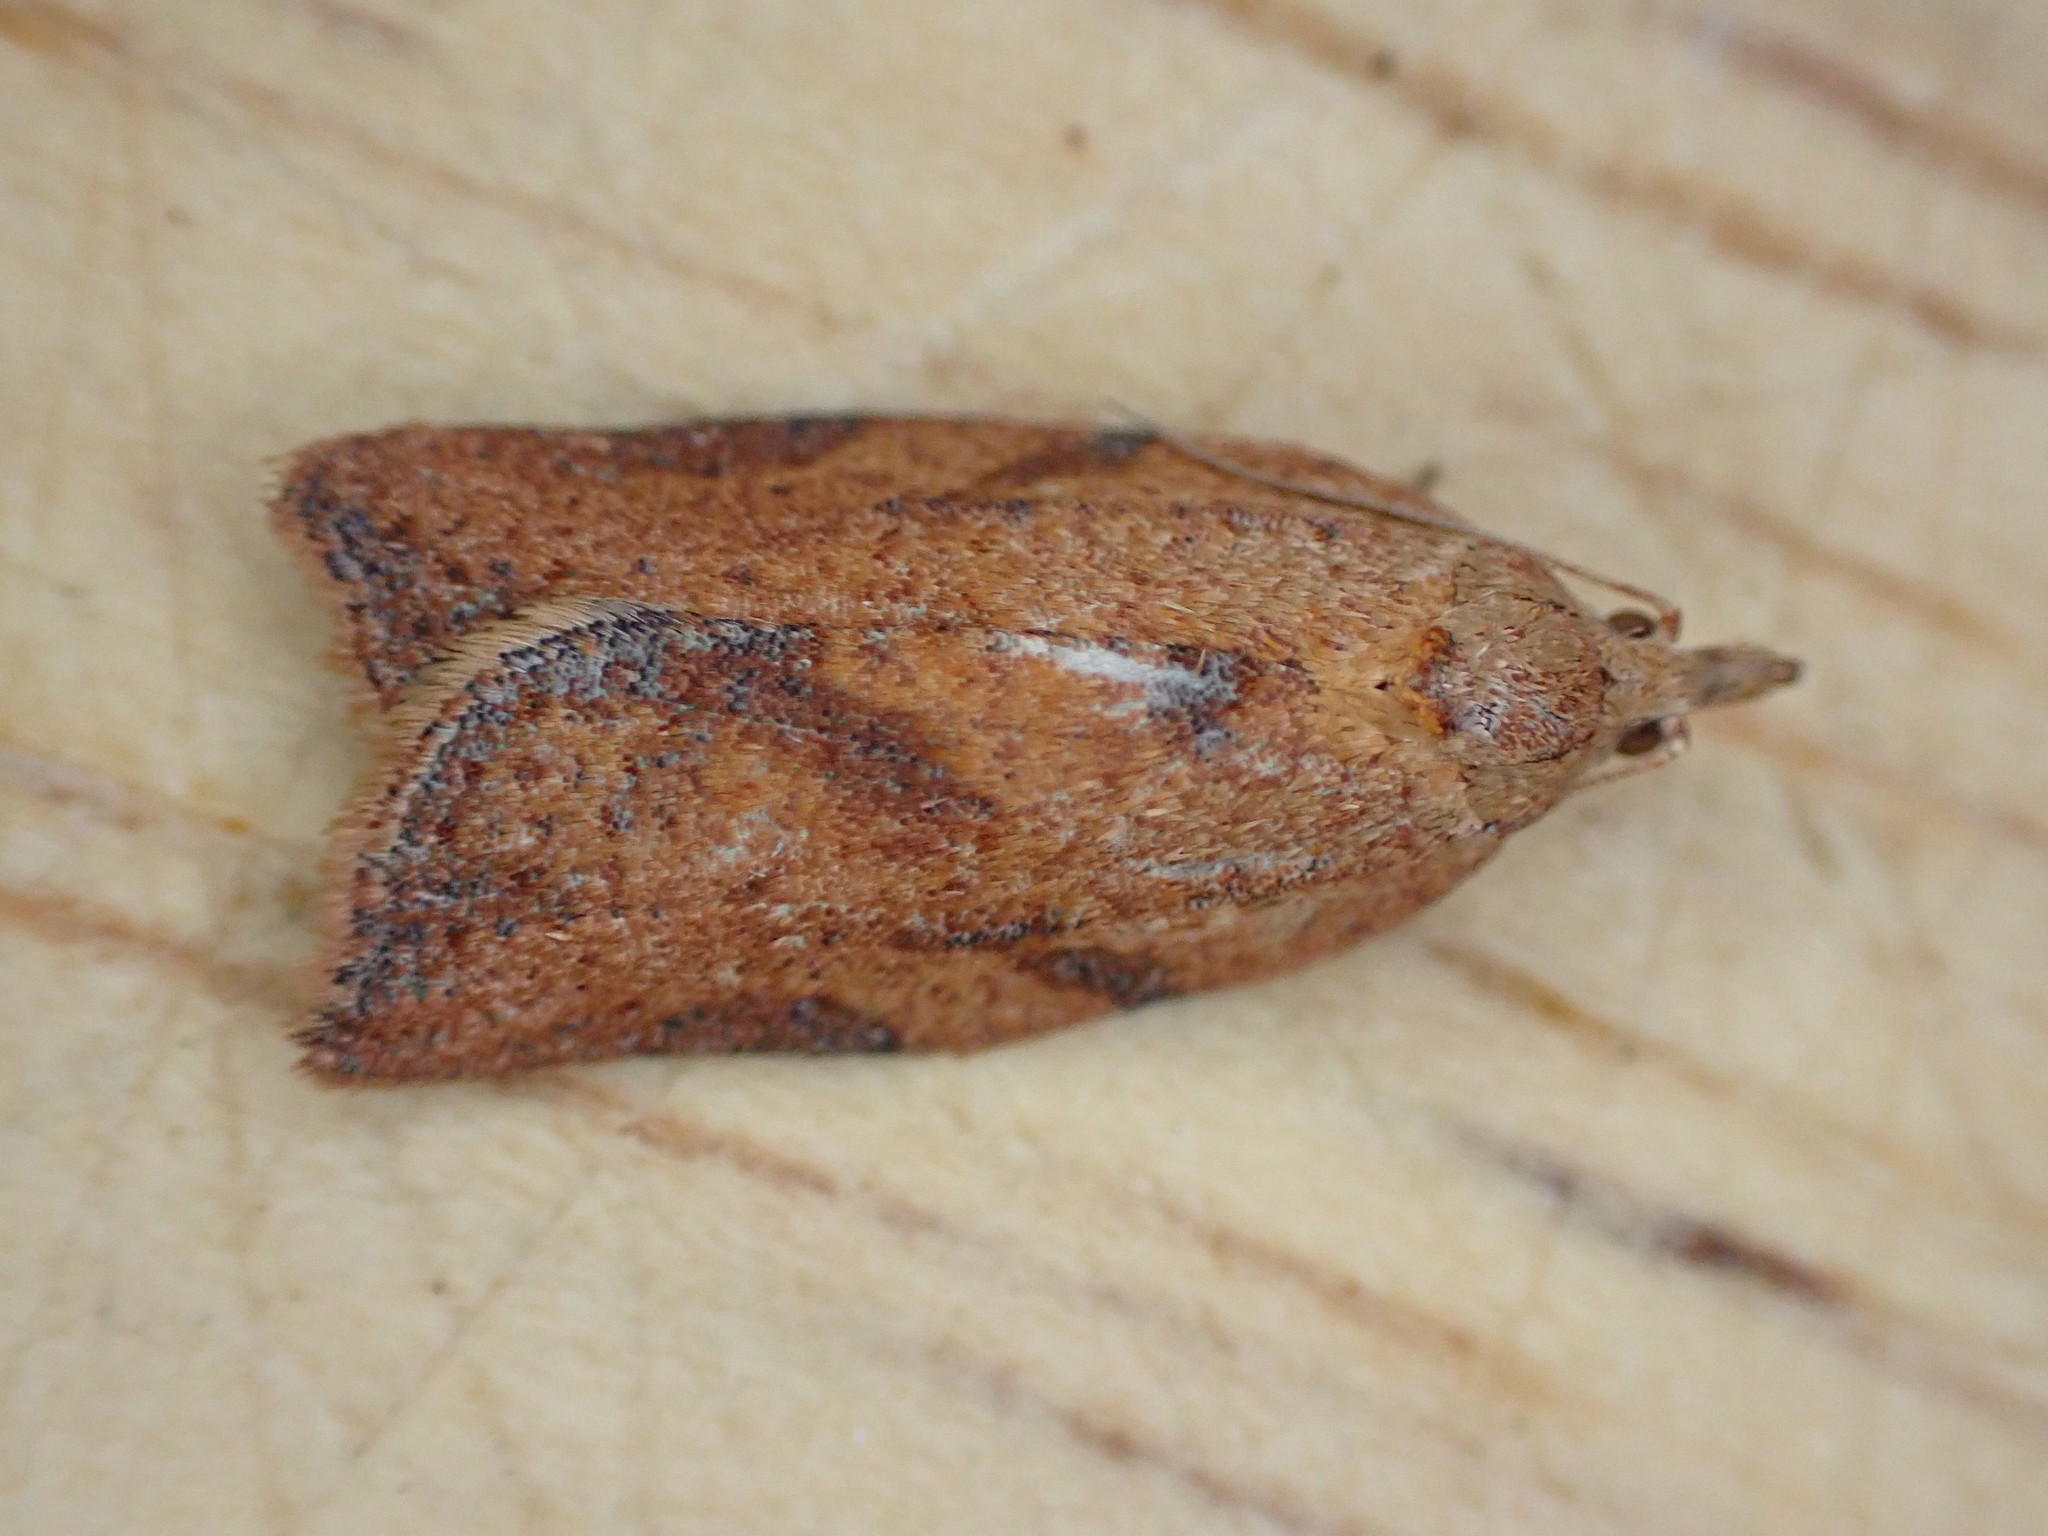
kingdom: Animalia
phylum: Arthropoda
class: Insecta
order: Lepidoptera
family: Tortricidae
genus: Epiphyas
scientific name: Epiphyas postvittana
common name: Light brown apple moth
